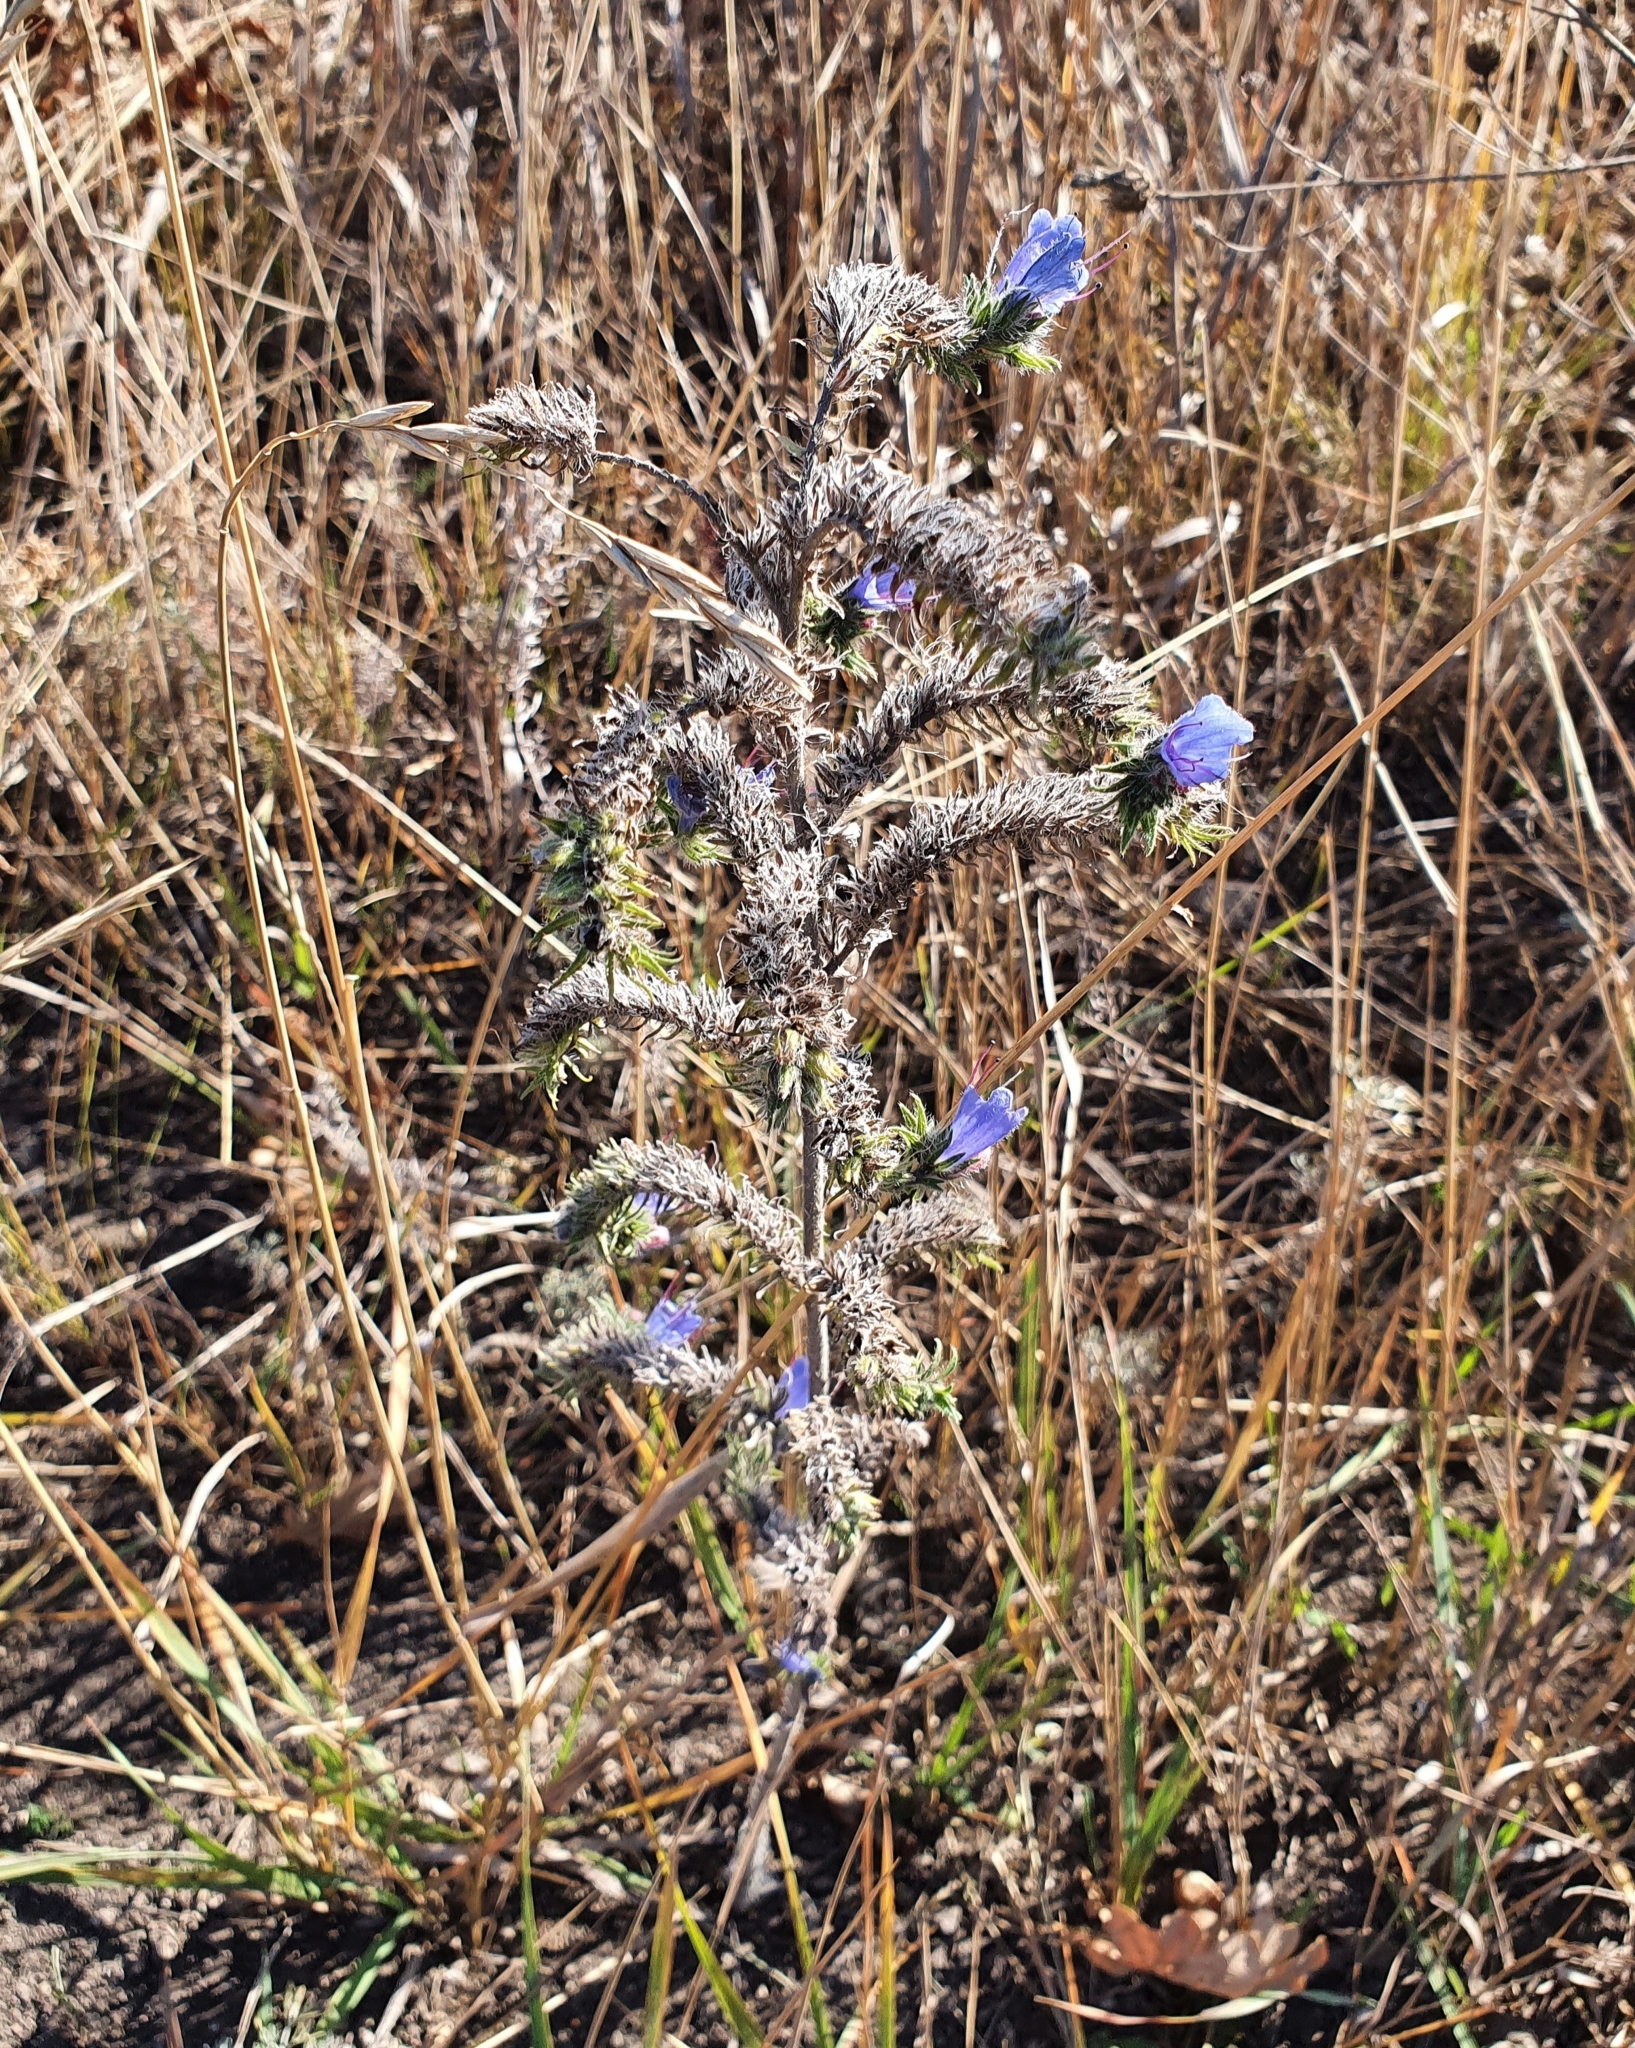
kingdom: Plantae
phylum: Tracheophyta
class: Magnoliopsida
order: Boraginales
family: Boraginaceae
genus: Echium
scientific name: Echium vulgare
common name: Common viper's bugloss
